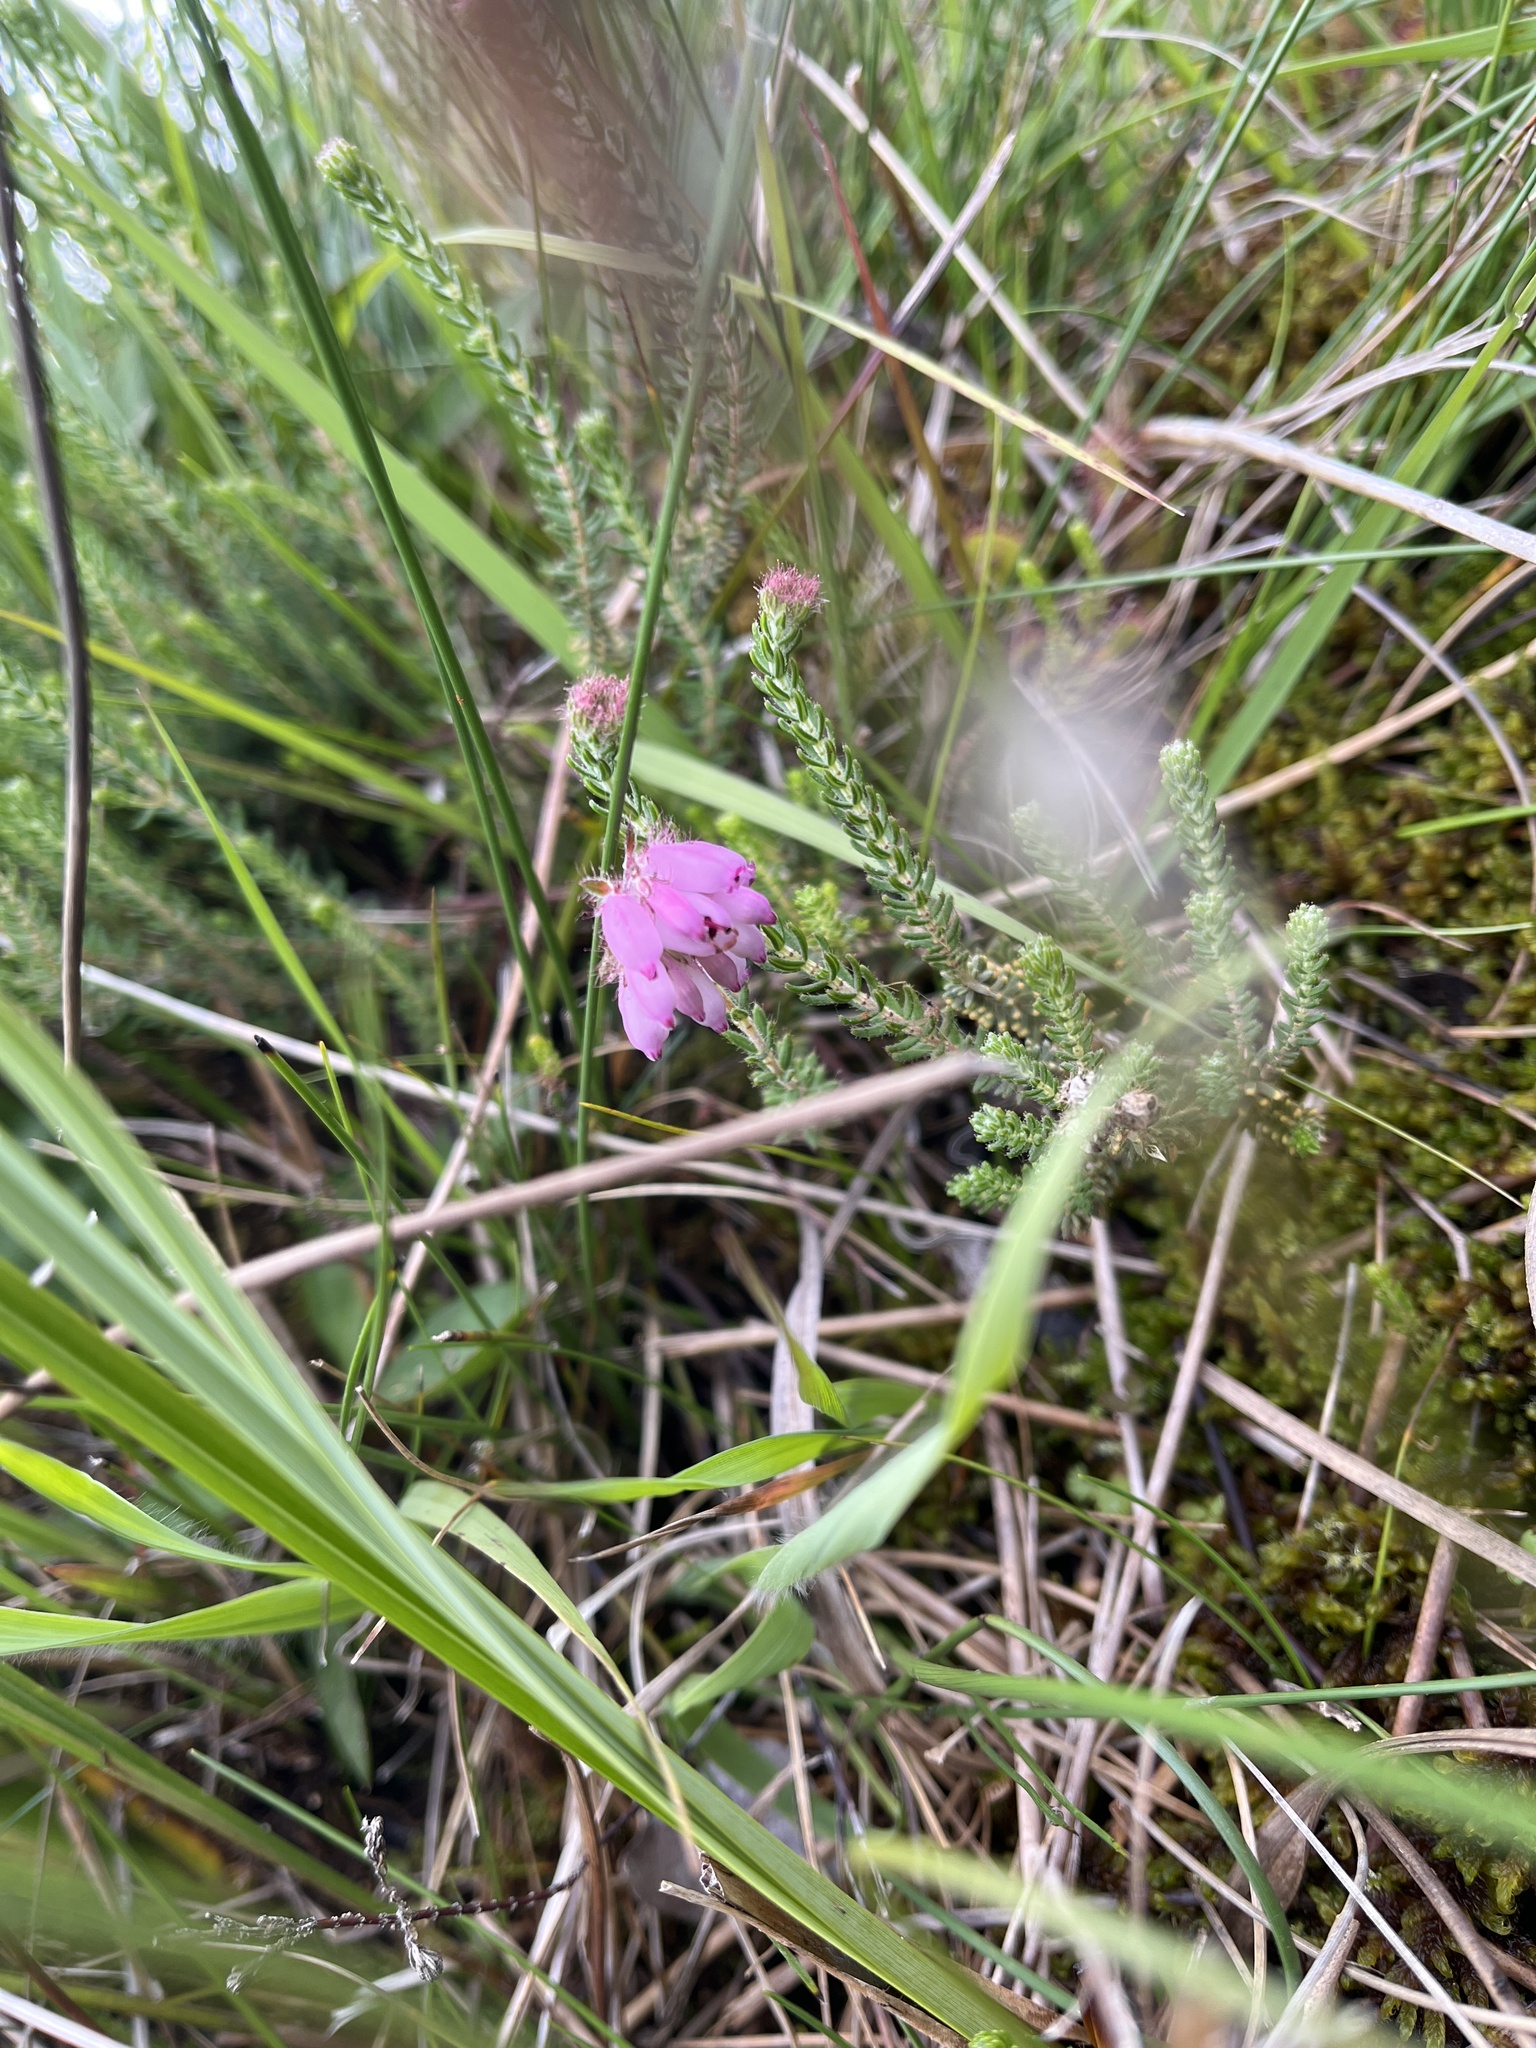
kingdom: Plantae
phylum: Tracheophyta
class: Magnoliopsida
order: Ericales
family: Ericaceae
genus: Erica
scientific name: Erica tetralix
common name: Cross-leaved heath
